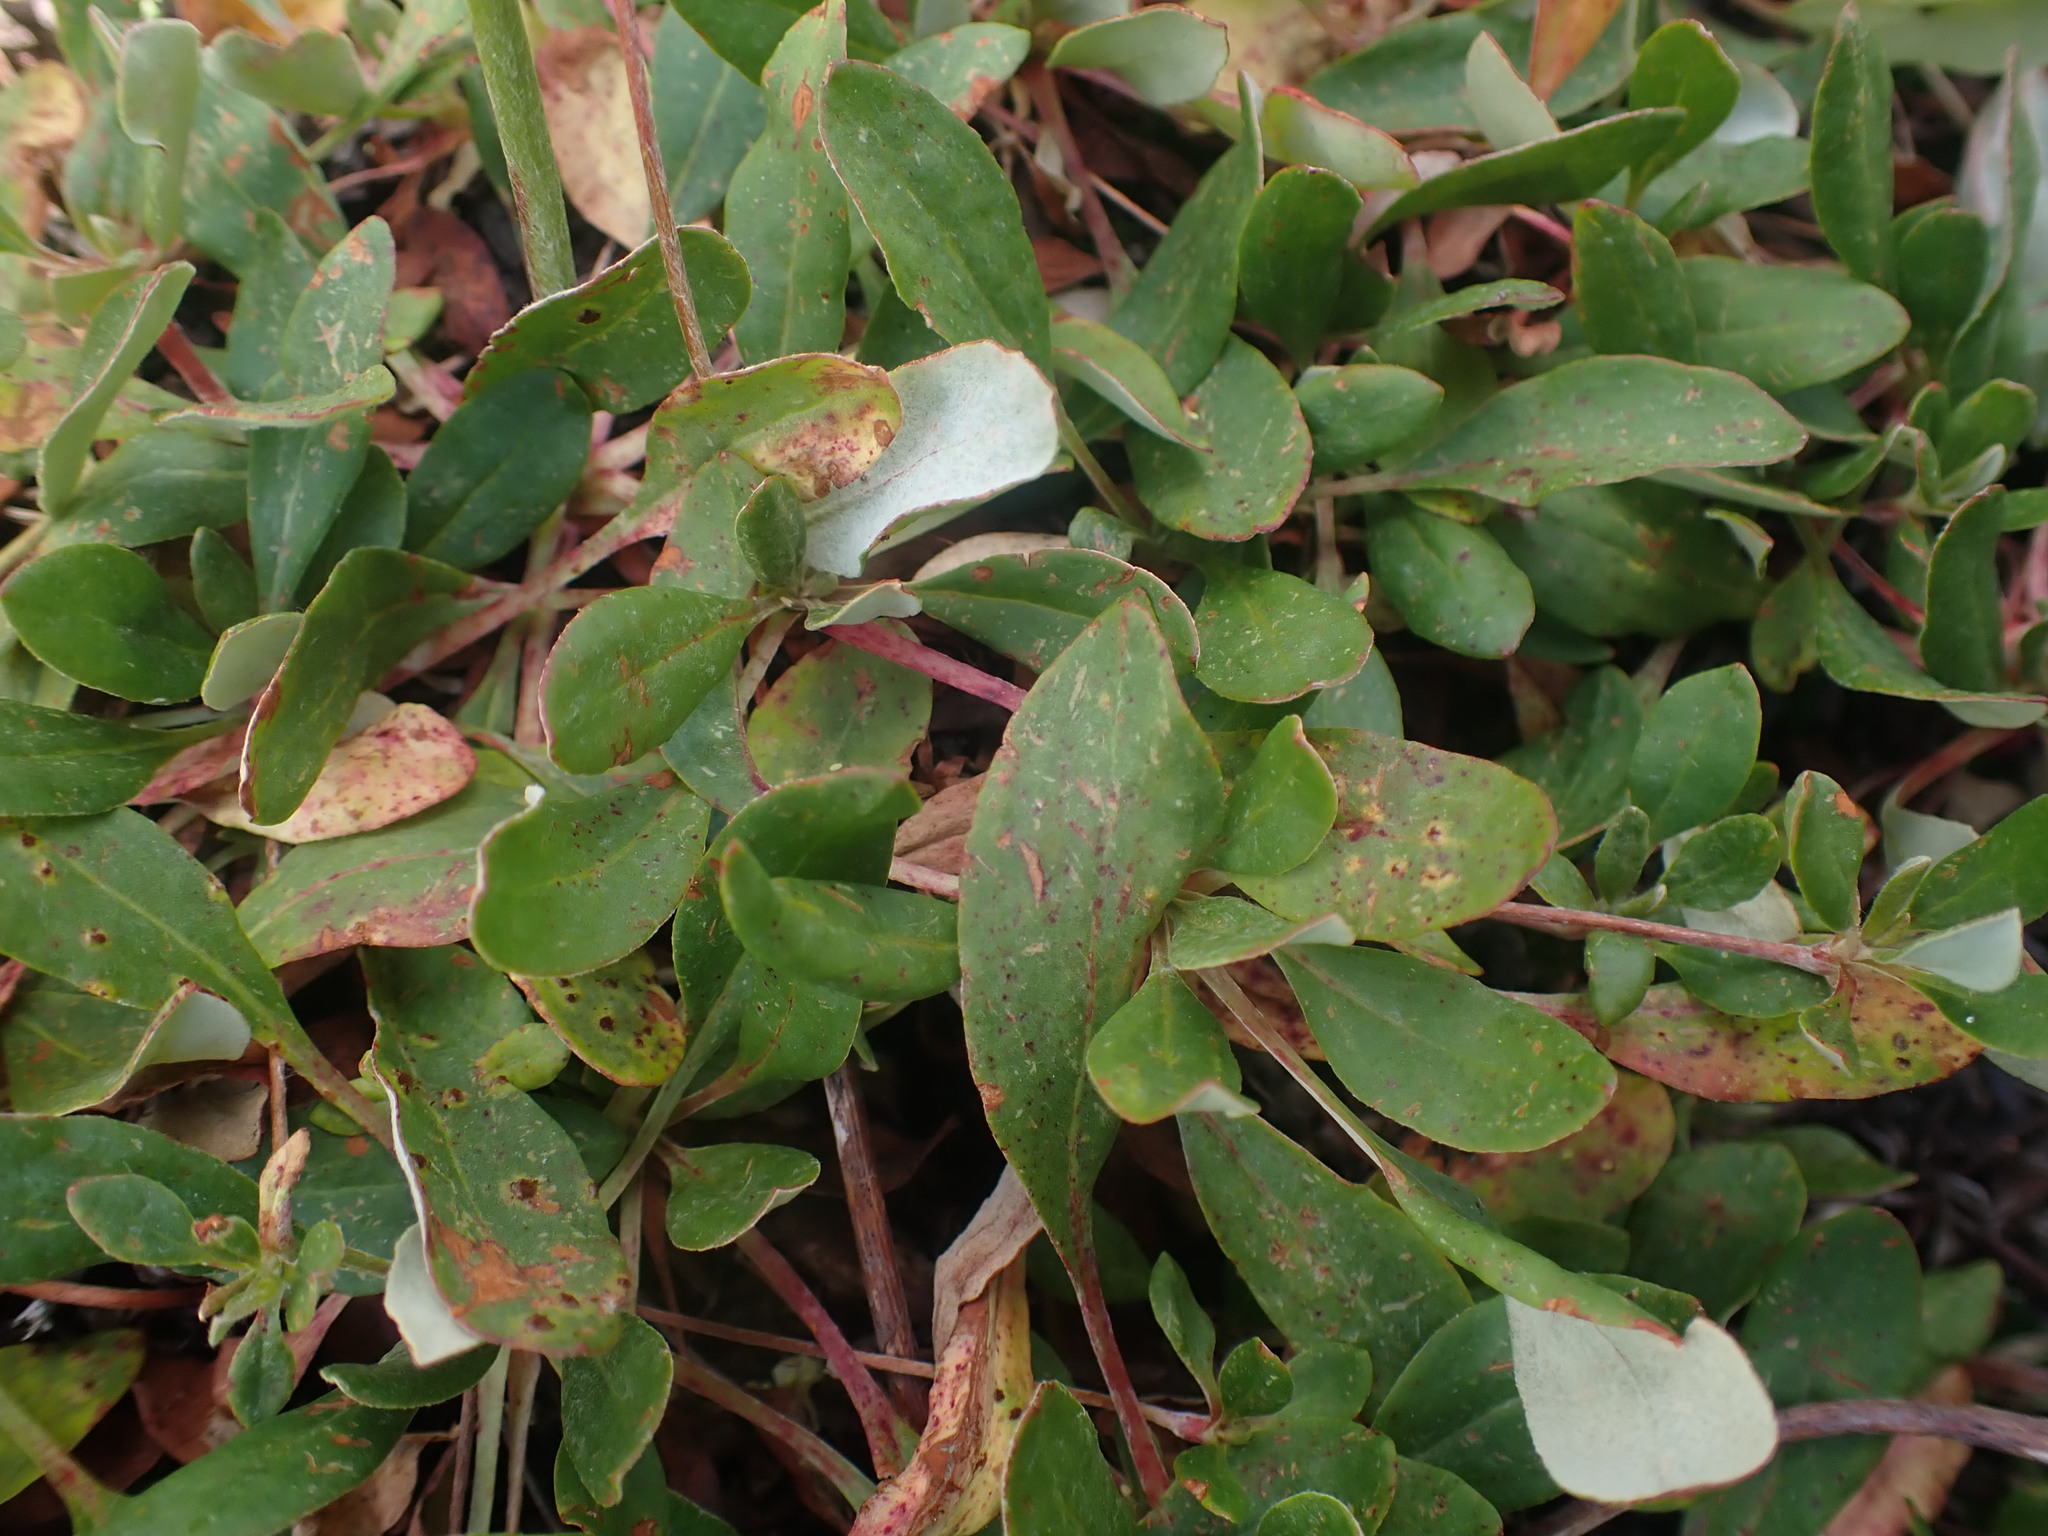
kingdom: Plantae
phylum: Tracheophyta
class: Magnoliopsida
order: Caryophyllales
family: Polygonaceae
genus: Eriogonum
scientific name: Eriogonum umbellatum
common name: Sulfur-buckwheat
